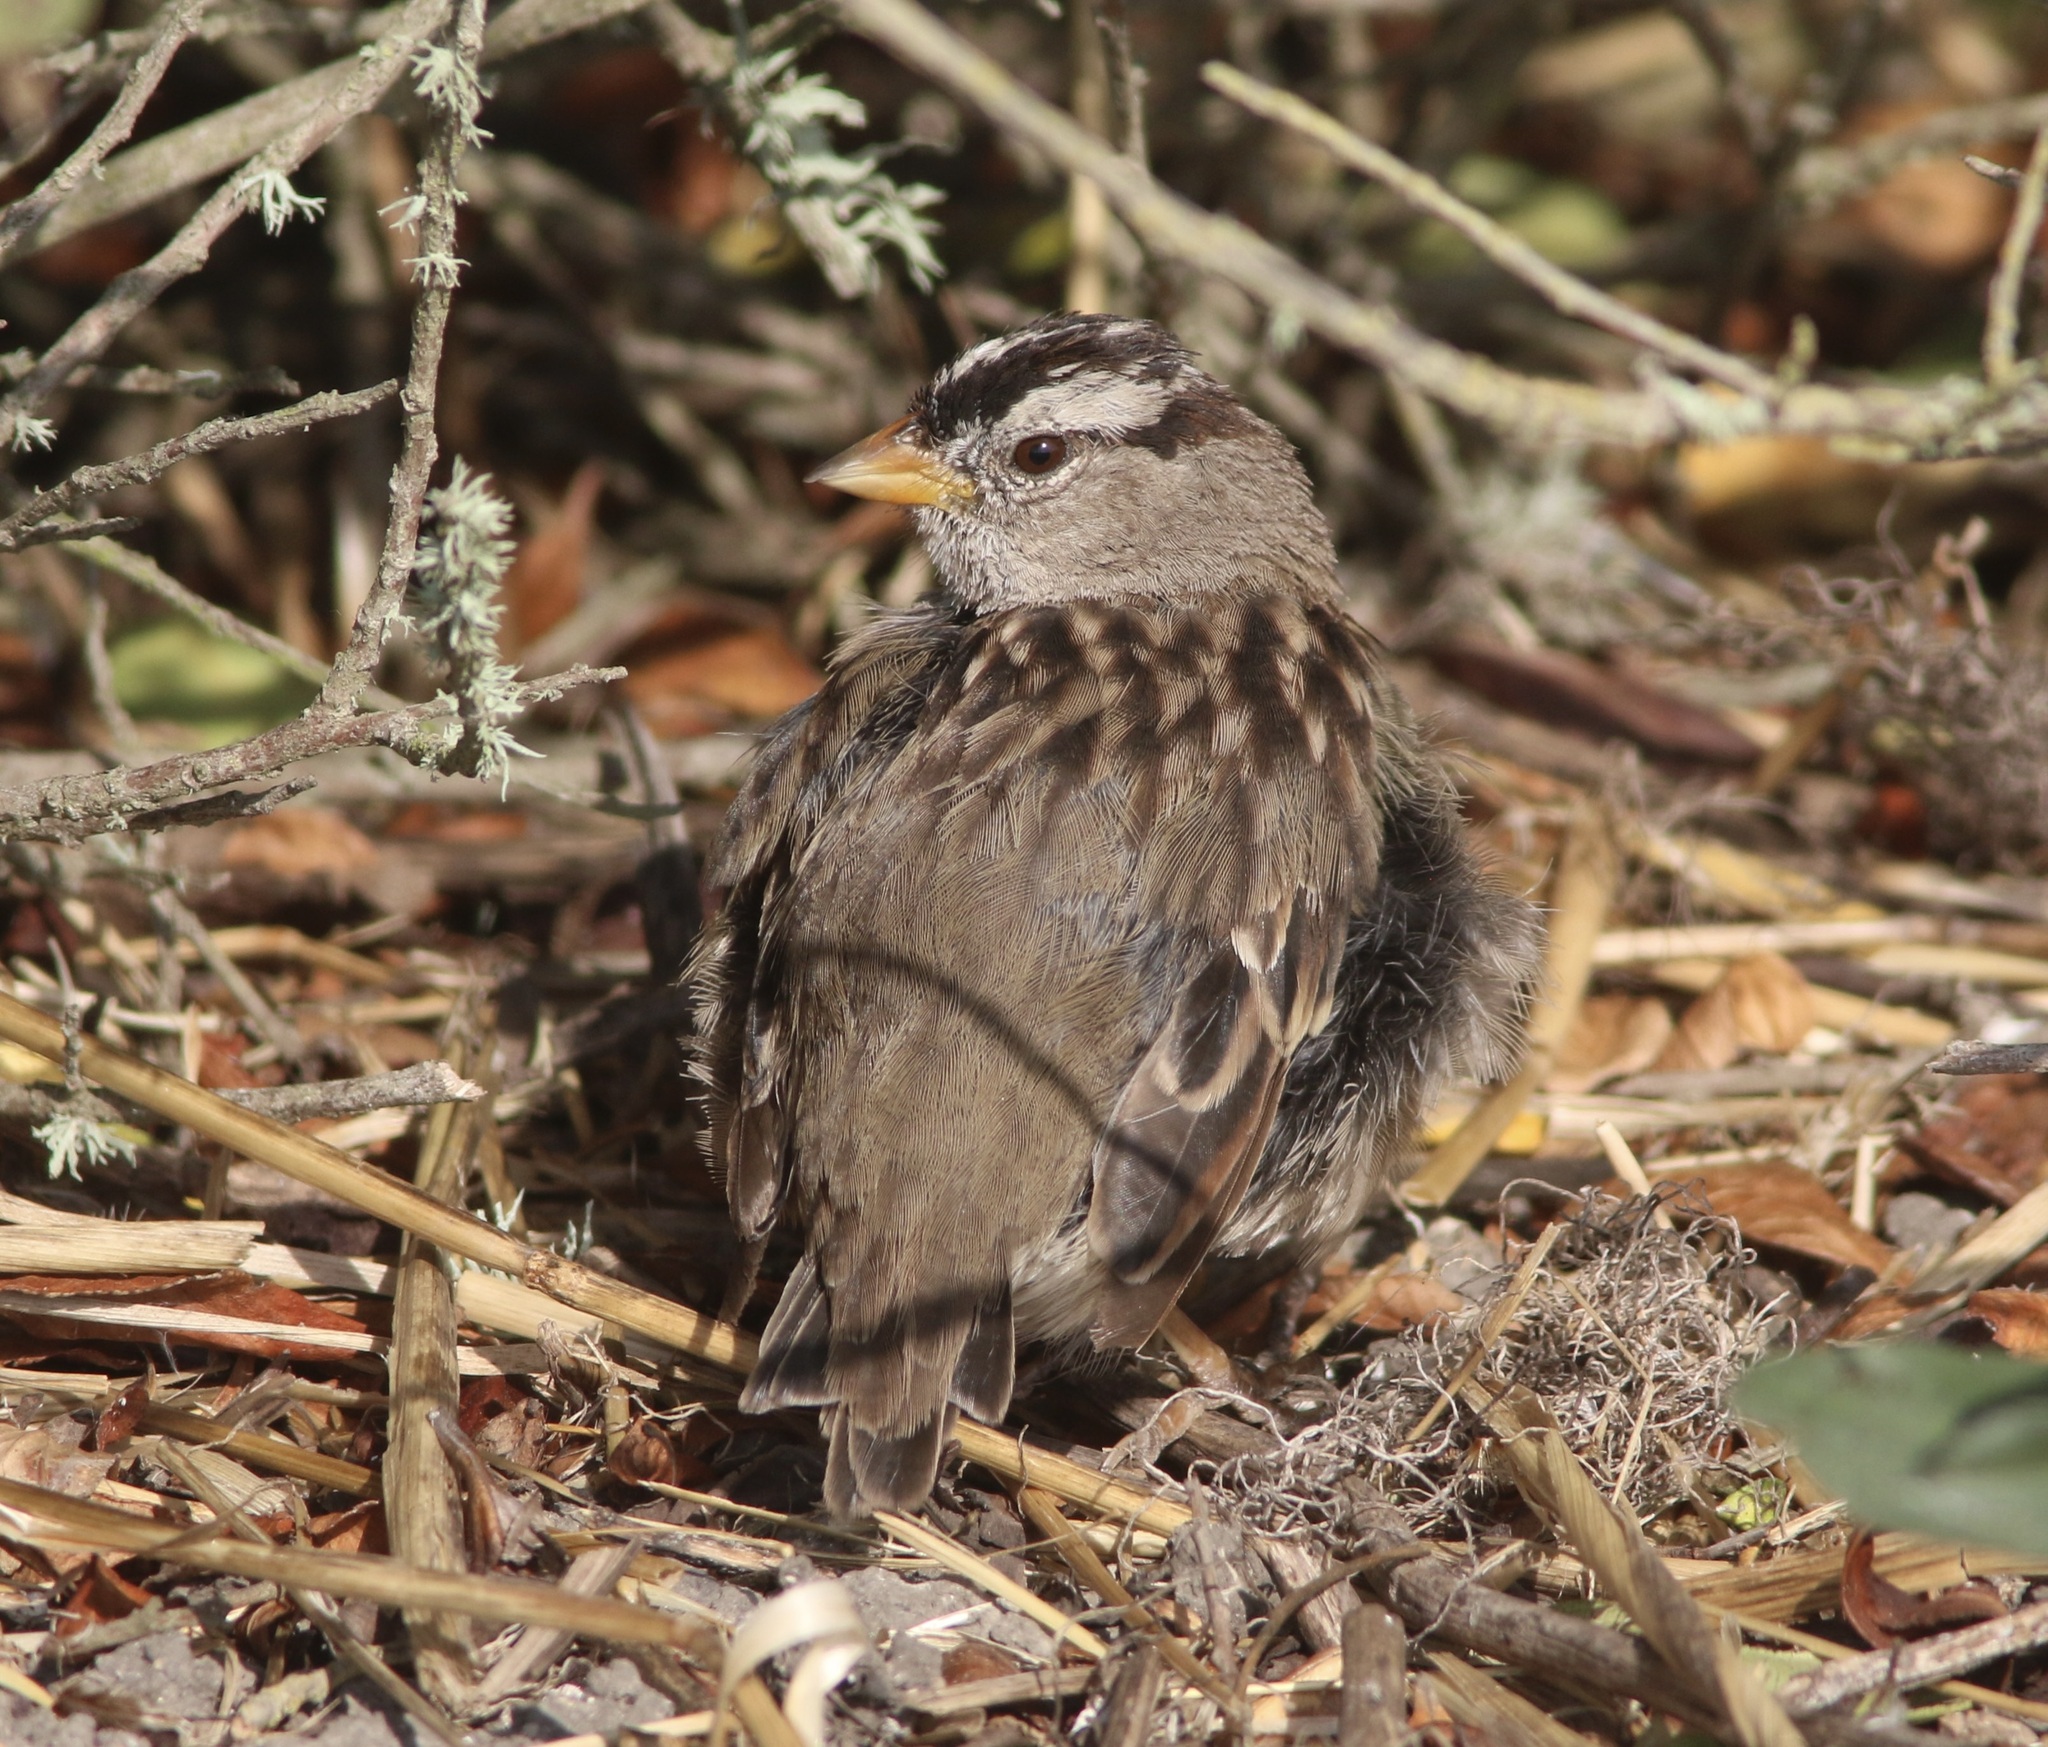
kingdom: Animalia
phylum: Chordata
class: Aves
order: Passeriformes
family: Passerellidae
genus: Zonotrichia
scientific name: Zonotrichia leucophrys
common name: White-crowned sparrow
